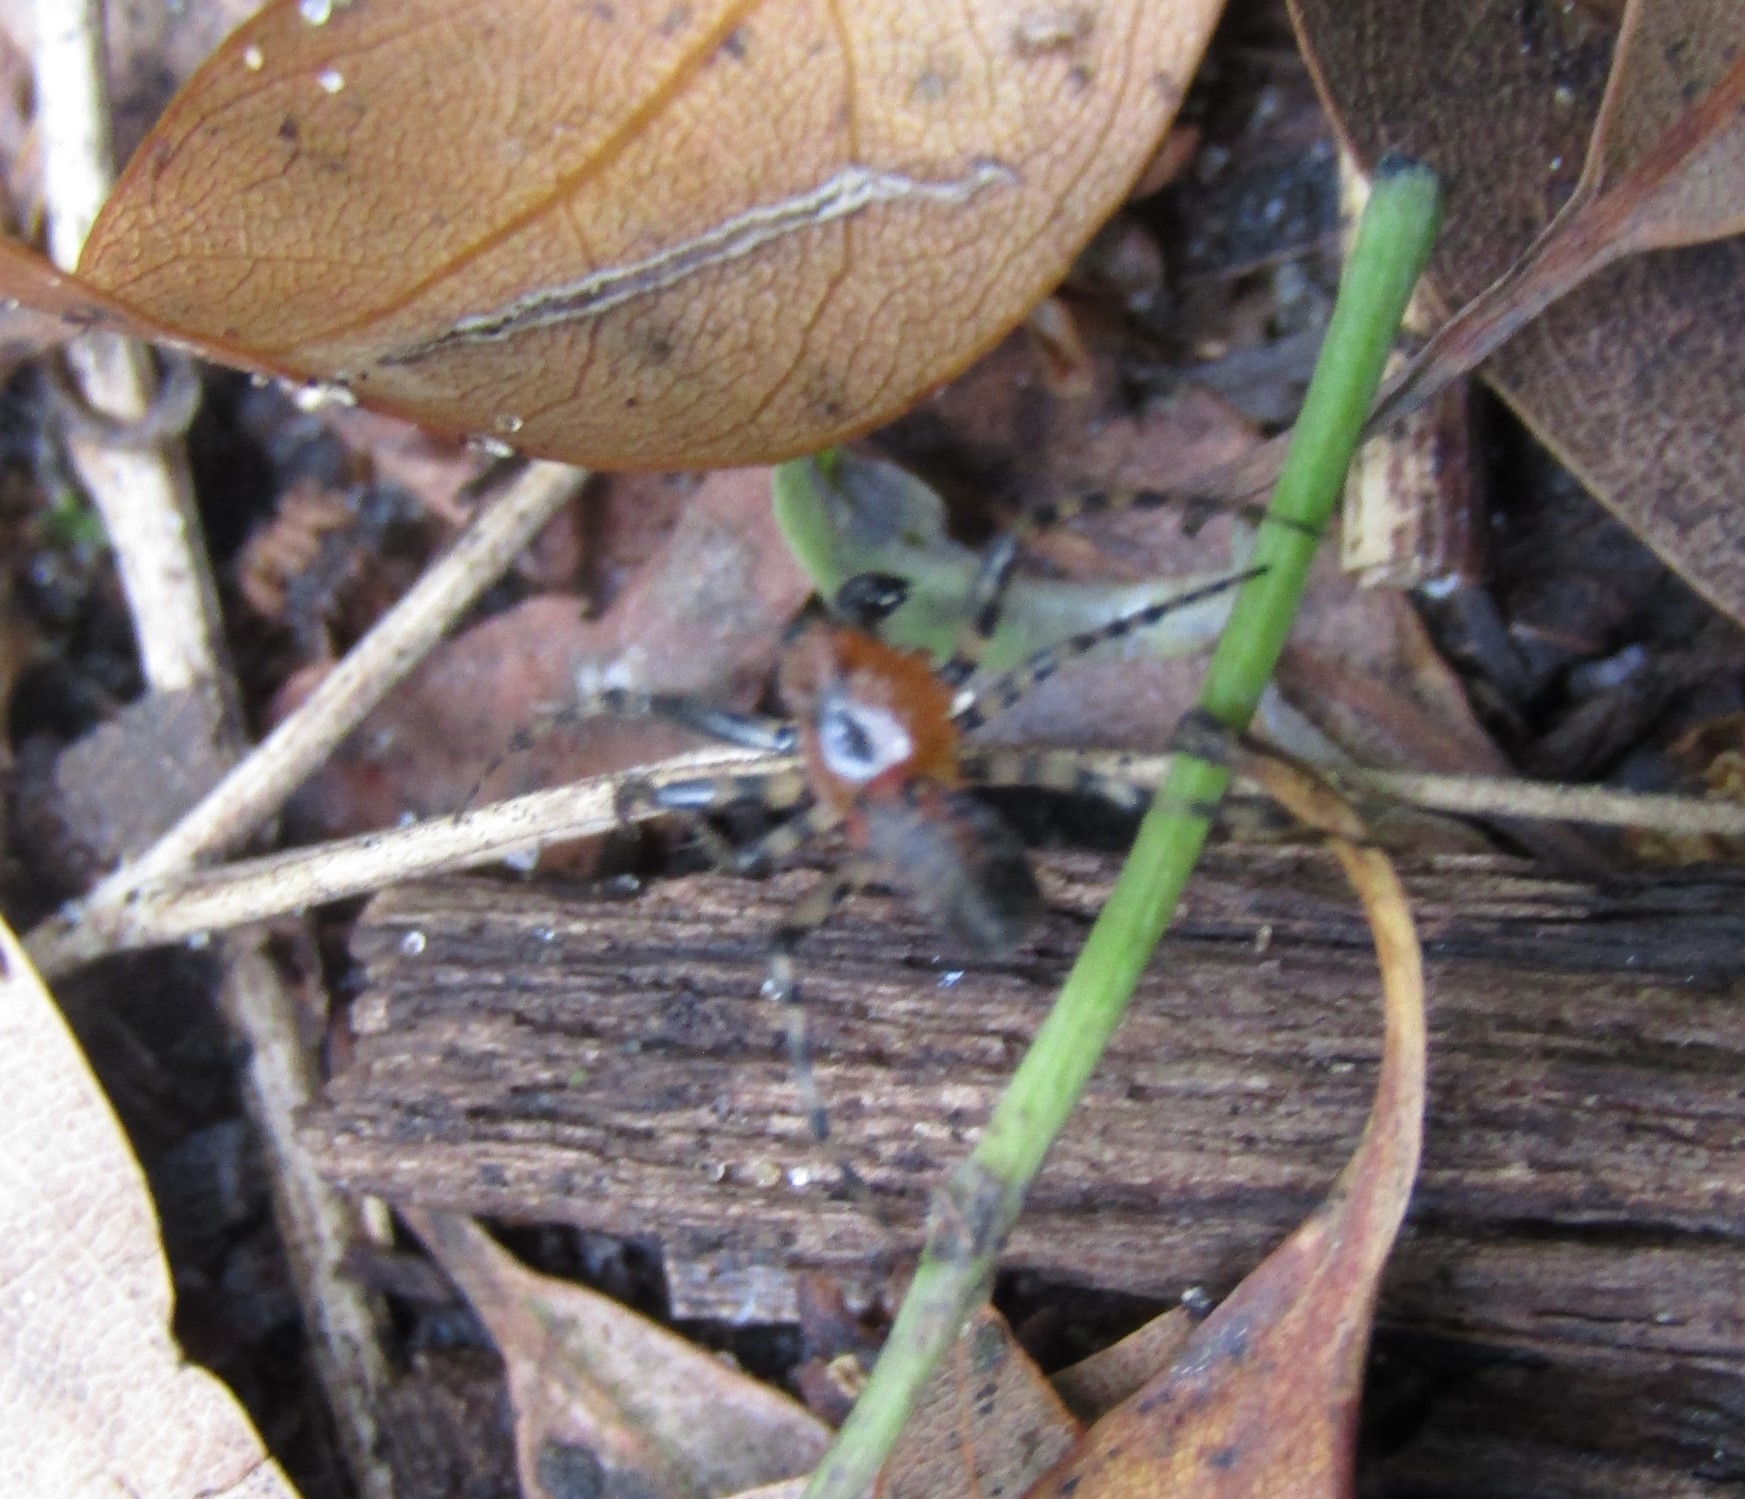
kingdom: Animalia
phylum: Arthropoda
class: Arachnida
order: Araneae
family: Araneidae
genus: Alpaida
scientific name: Alpaida gallardoi
